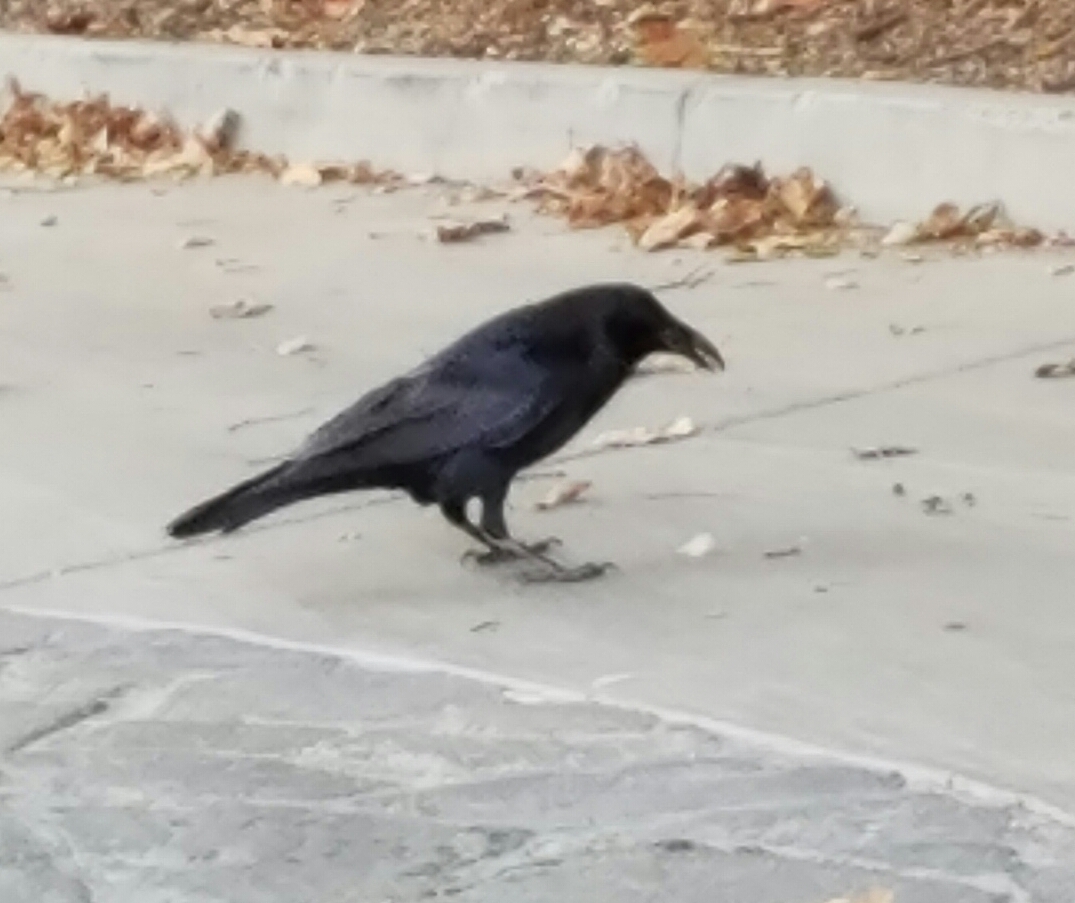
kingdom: Animalia
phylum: Chordata
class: Aves
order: Passeriformes
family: Corvidae
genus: Corvus
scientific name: Corvus corax
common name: Common raven
